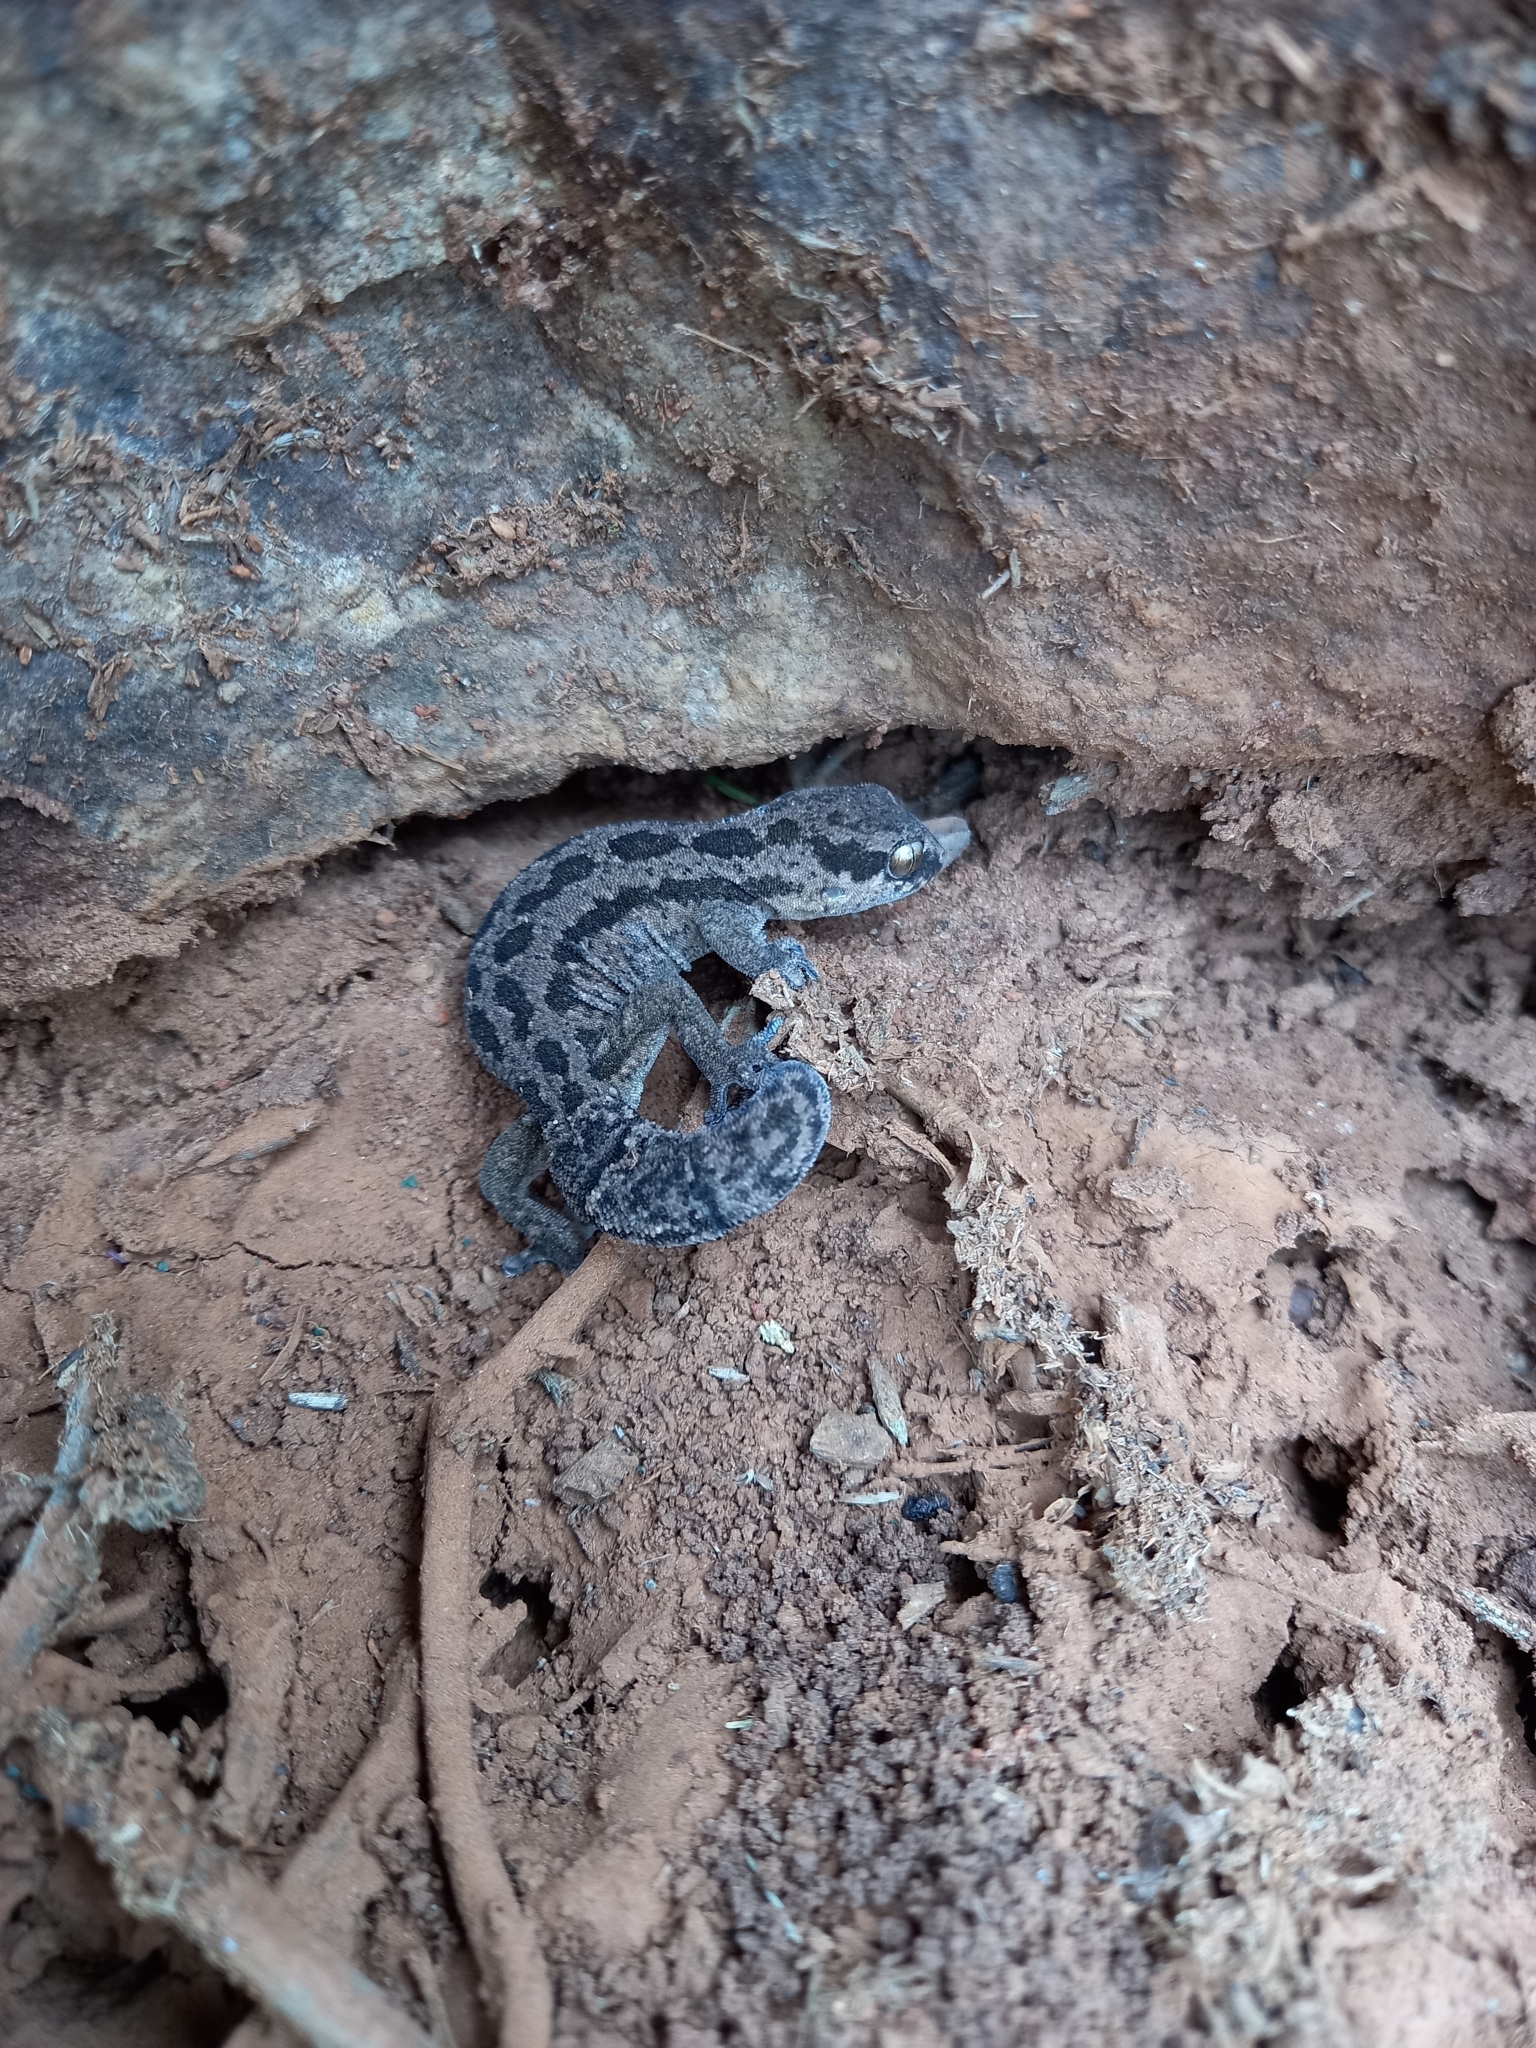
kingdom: Animalia
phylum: Chordata
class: Squamata
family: Gekkonidae
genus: Pachydactylus
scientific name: Pachydactylus maculatus
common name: Spotted thick-toed gecko
